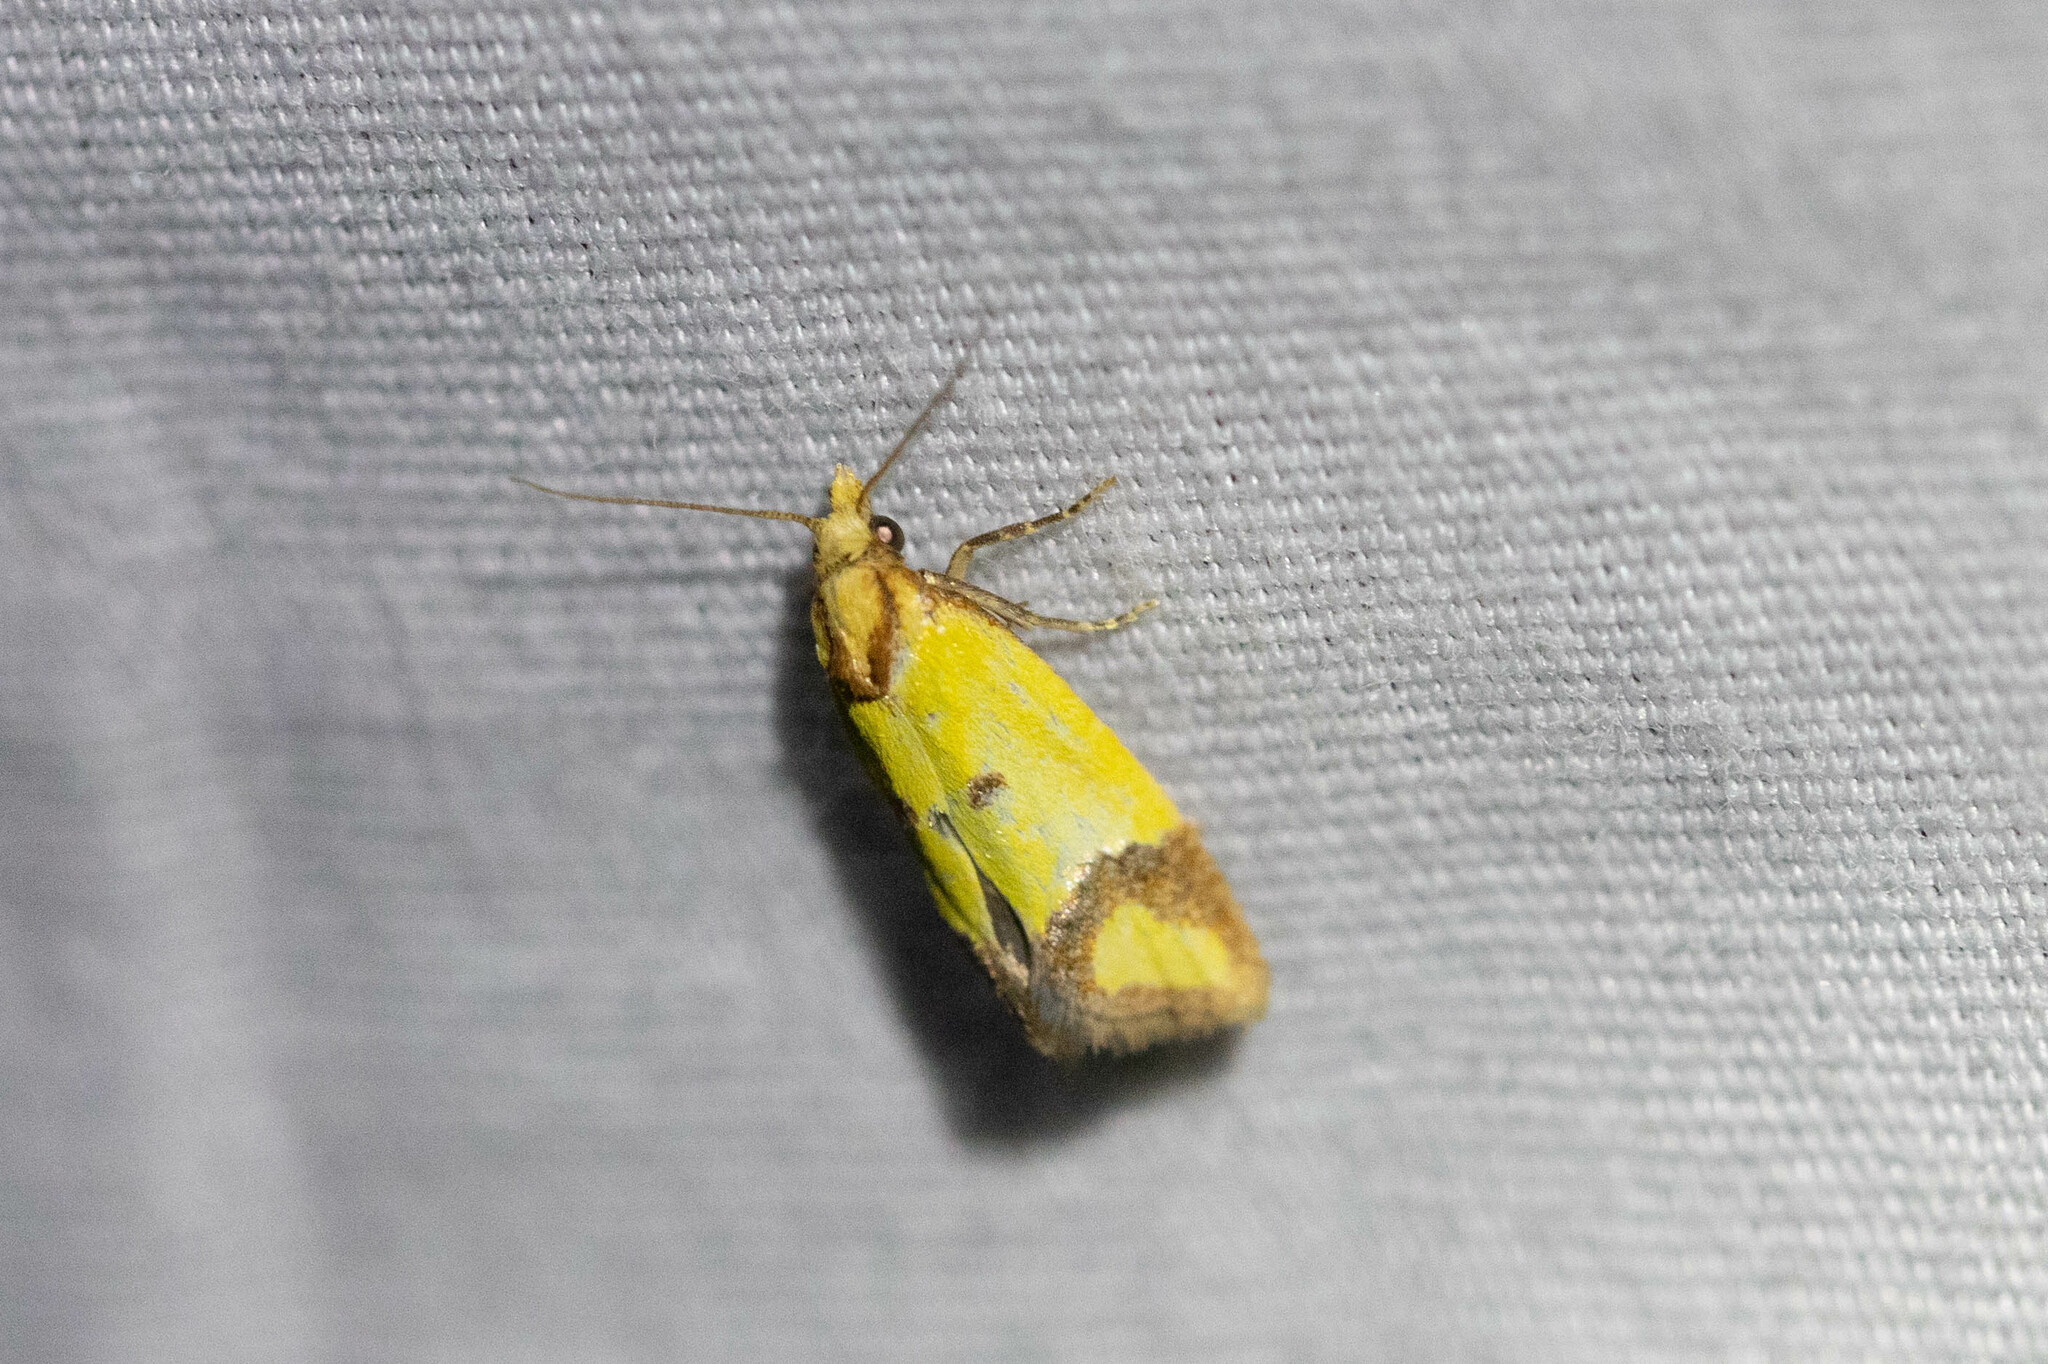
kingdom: Animalia
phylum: Arthropoda
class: Insecta
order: Lepidoptera
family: Tortricidae
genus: Agapeta
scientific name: Agapeta zoegana
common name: Sulfur knapweed root moth
